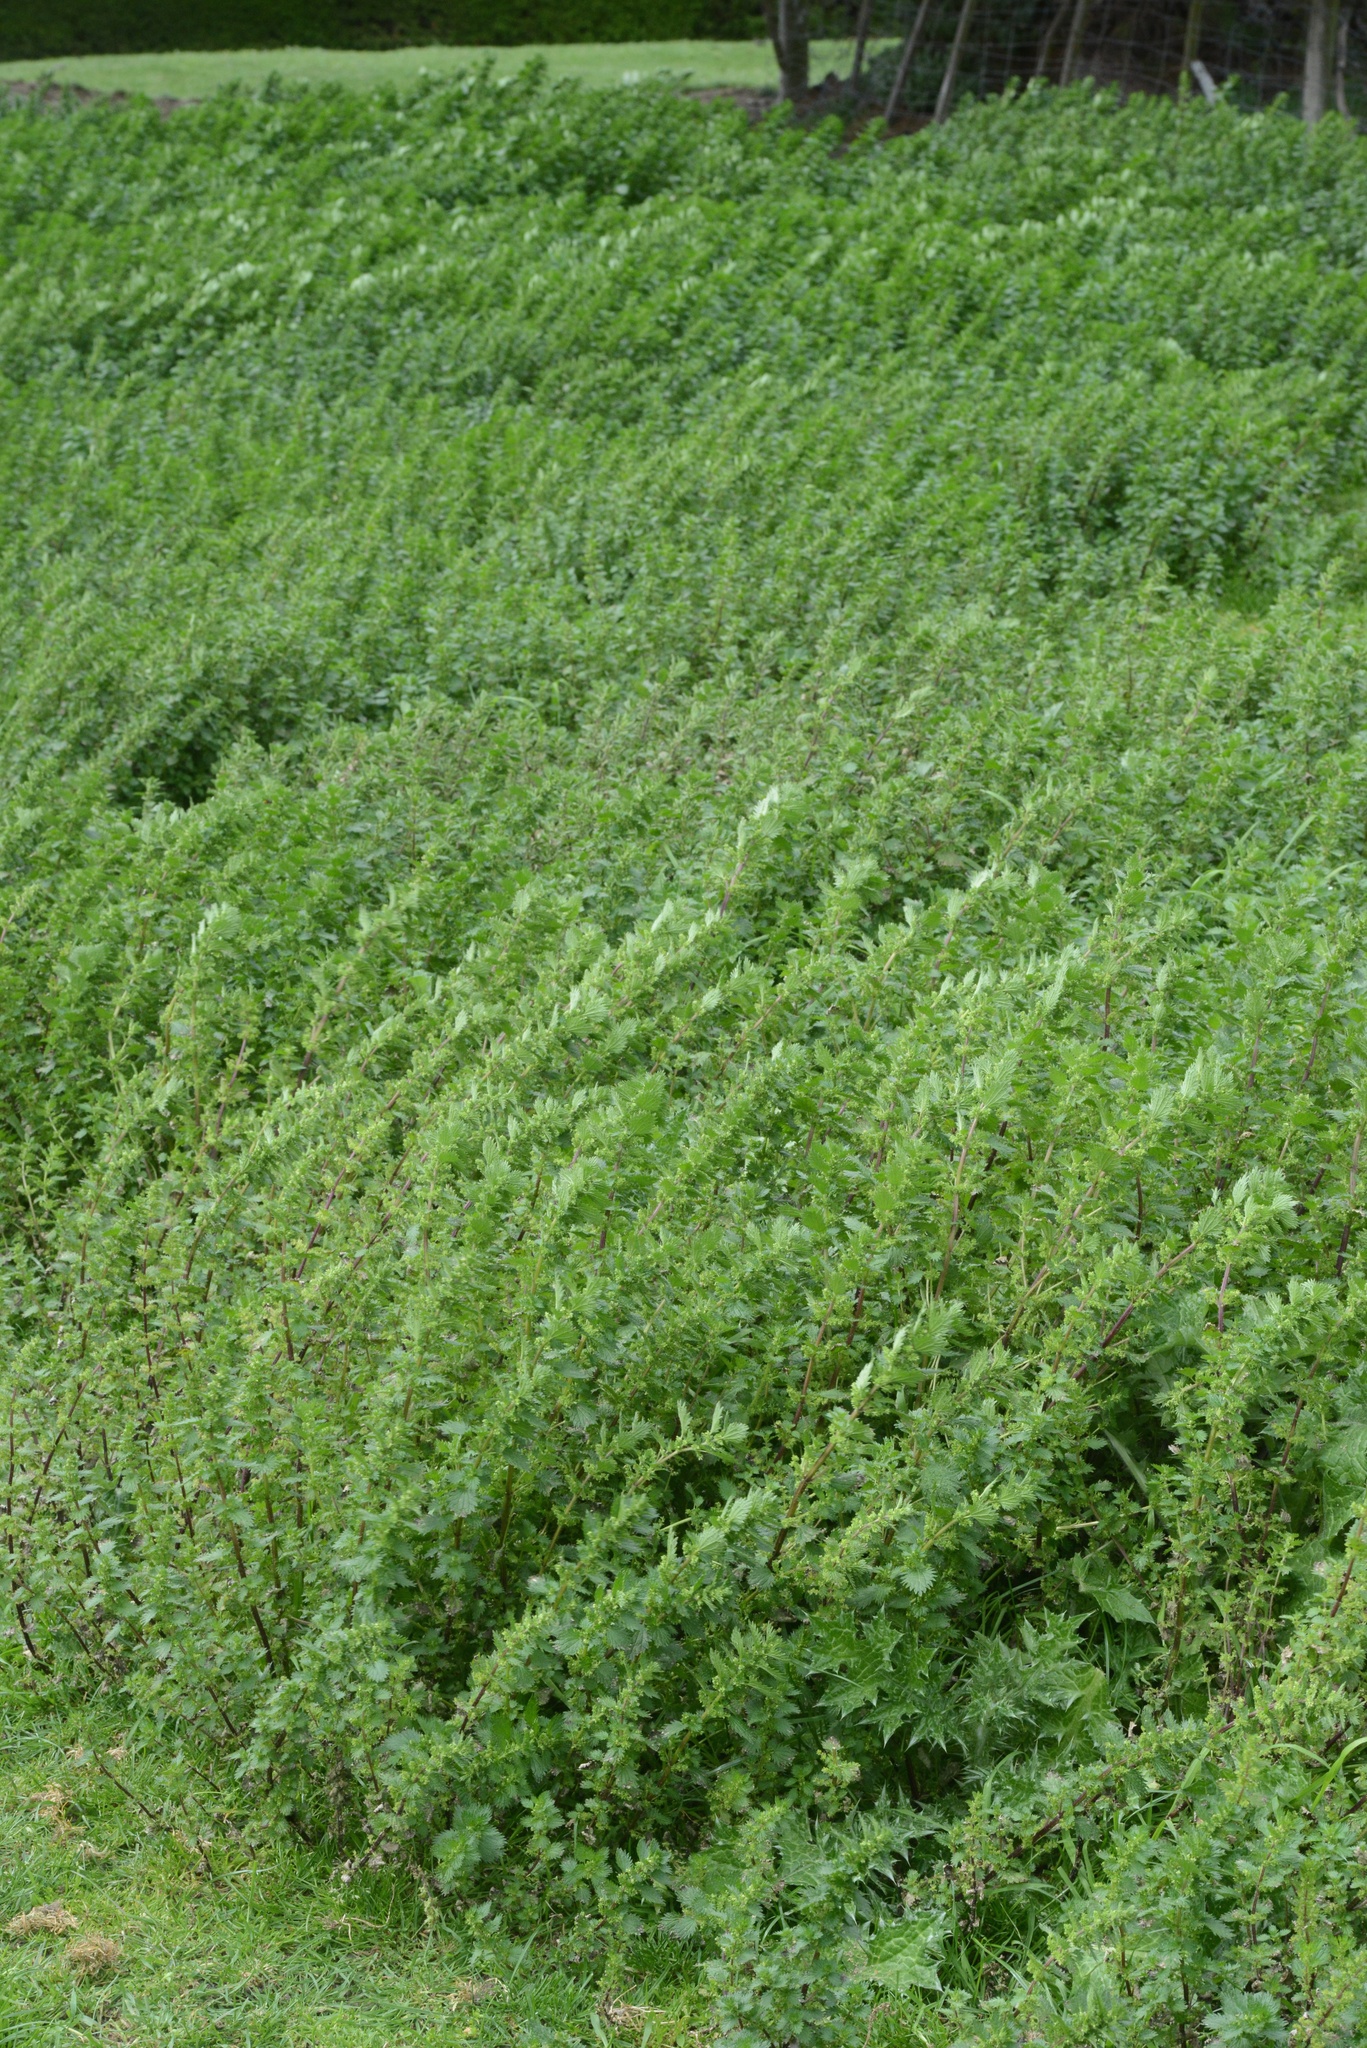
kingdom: Plantae
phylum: Tracheophyta
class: Magnoliopsida
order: Rosales
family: Urticaceae
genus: Urtica
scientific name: Urtica urens
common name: Dwarf nettle
